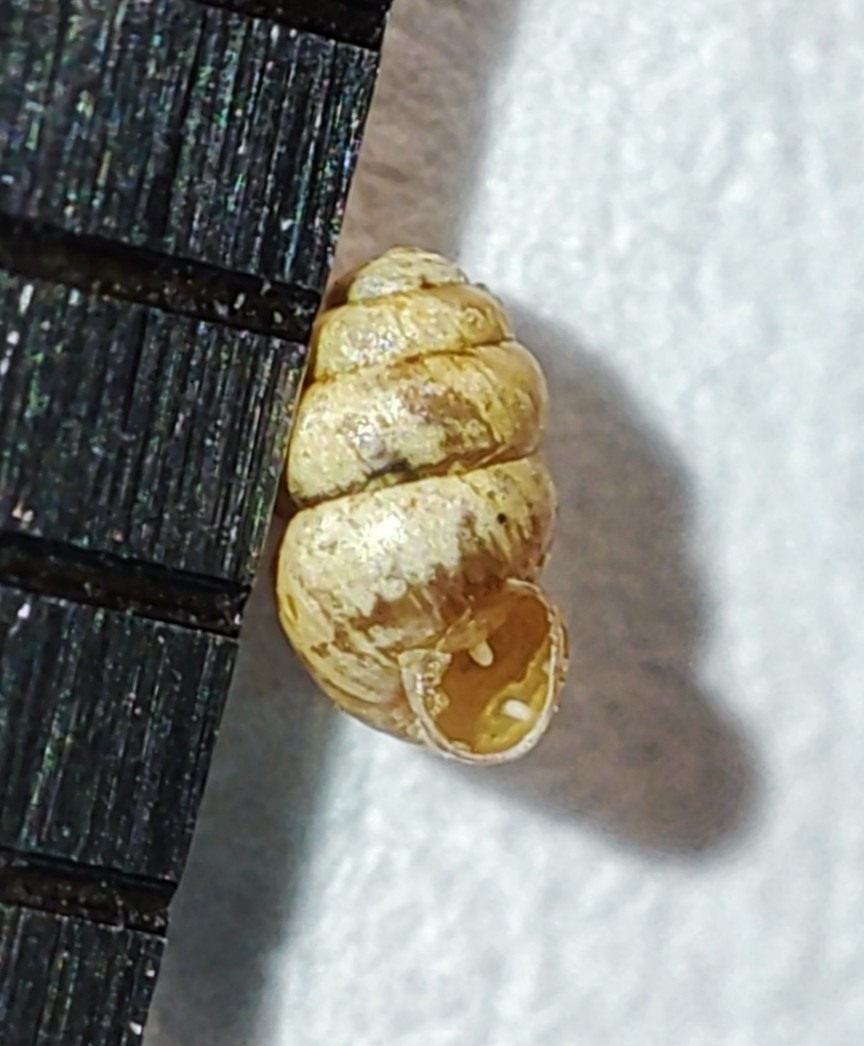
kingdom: Animalia
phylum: Mollusca
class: Gastropoda
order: Stylommatophora
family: Vertiginidae
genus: Vertigo
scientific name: Vertigo alpestris
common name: Mountain whorl snail
